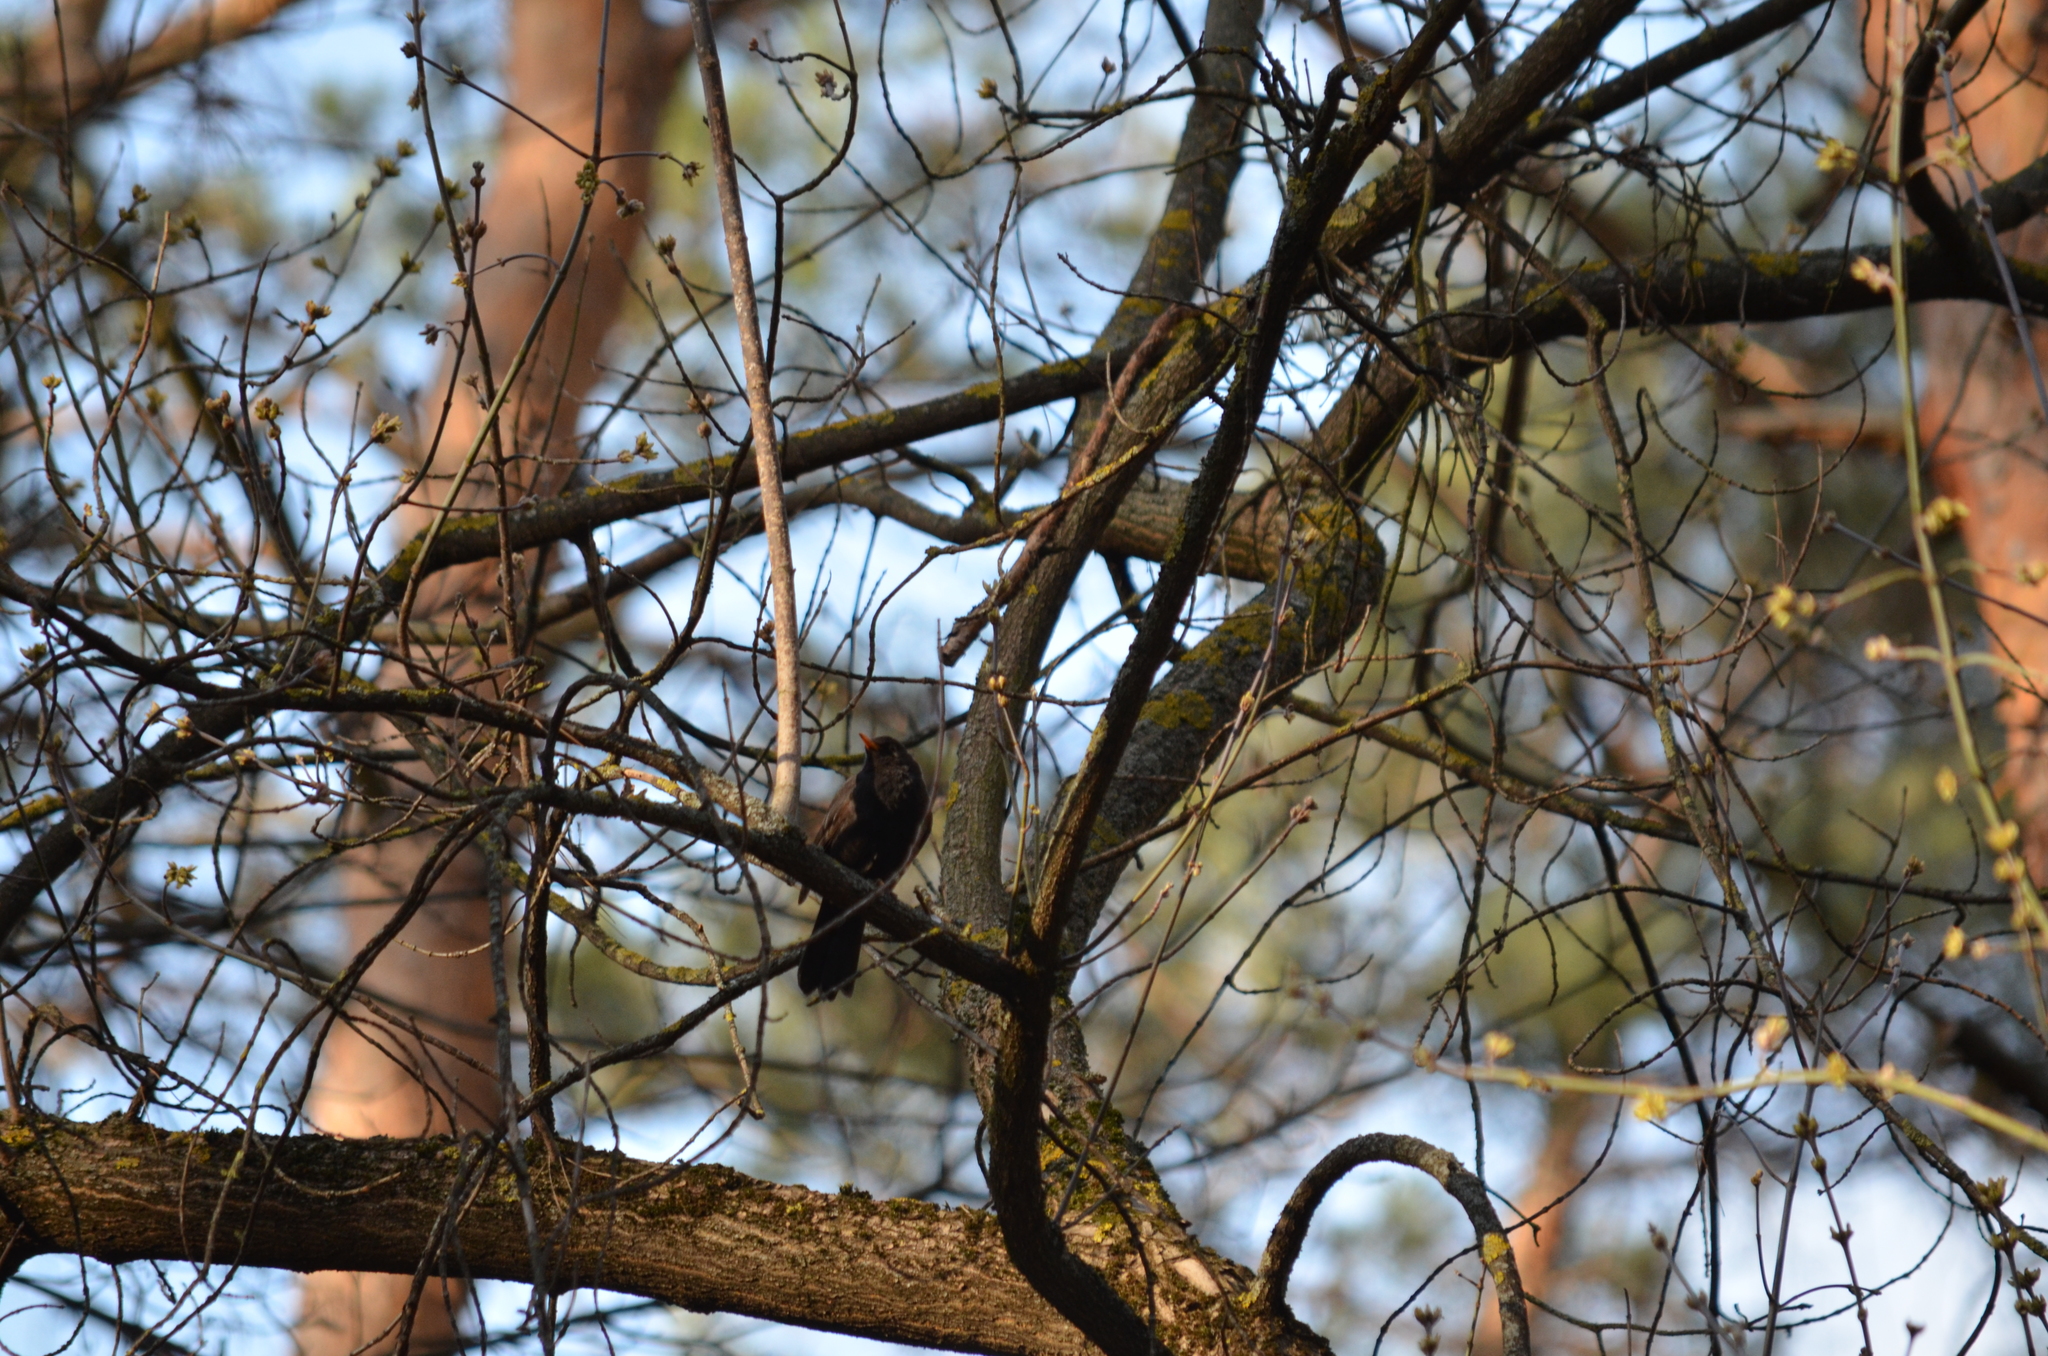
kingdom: Animalia
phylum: Chordata
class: Aves
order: Passeriformes
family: Turdidae
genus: Turdus
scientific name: Turdus merula
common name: Common blackbird
